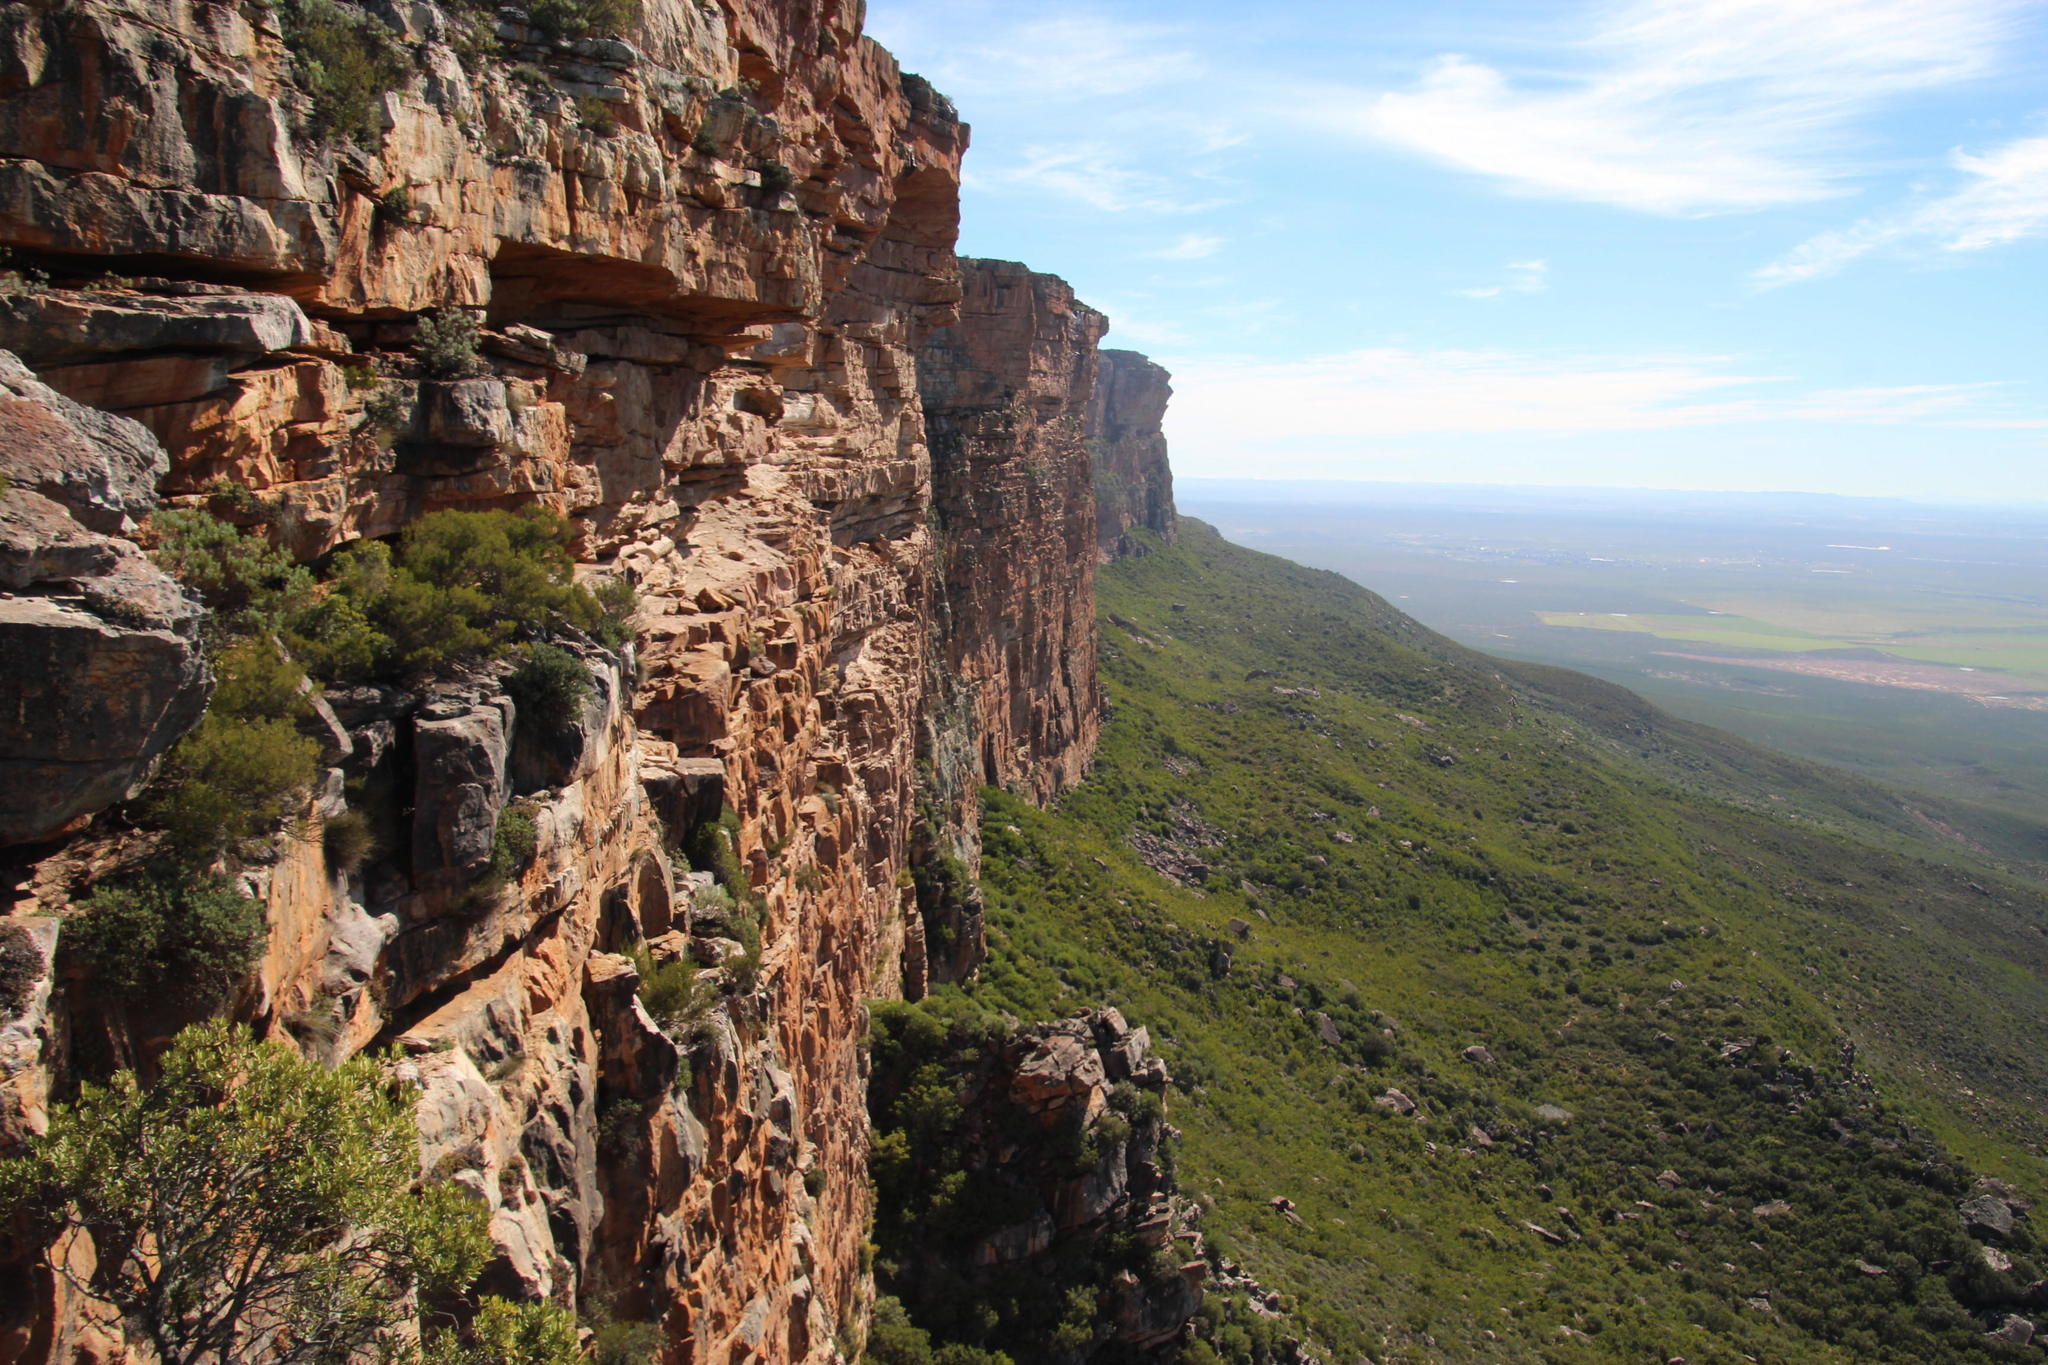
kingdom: Plantae
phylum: Tracheophyta
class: Magnoliopsida
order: Celastrales
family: Celastraceae
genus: Gymnosporia
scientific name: Gymnosporia laurina
